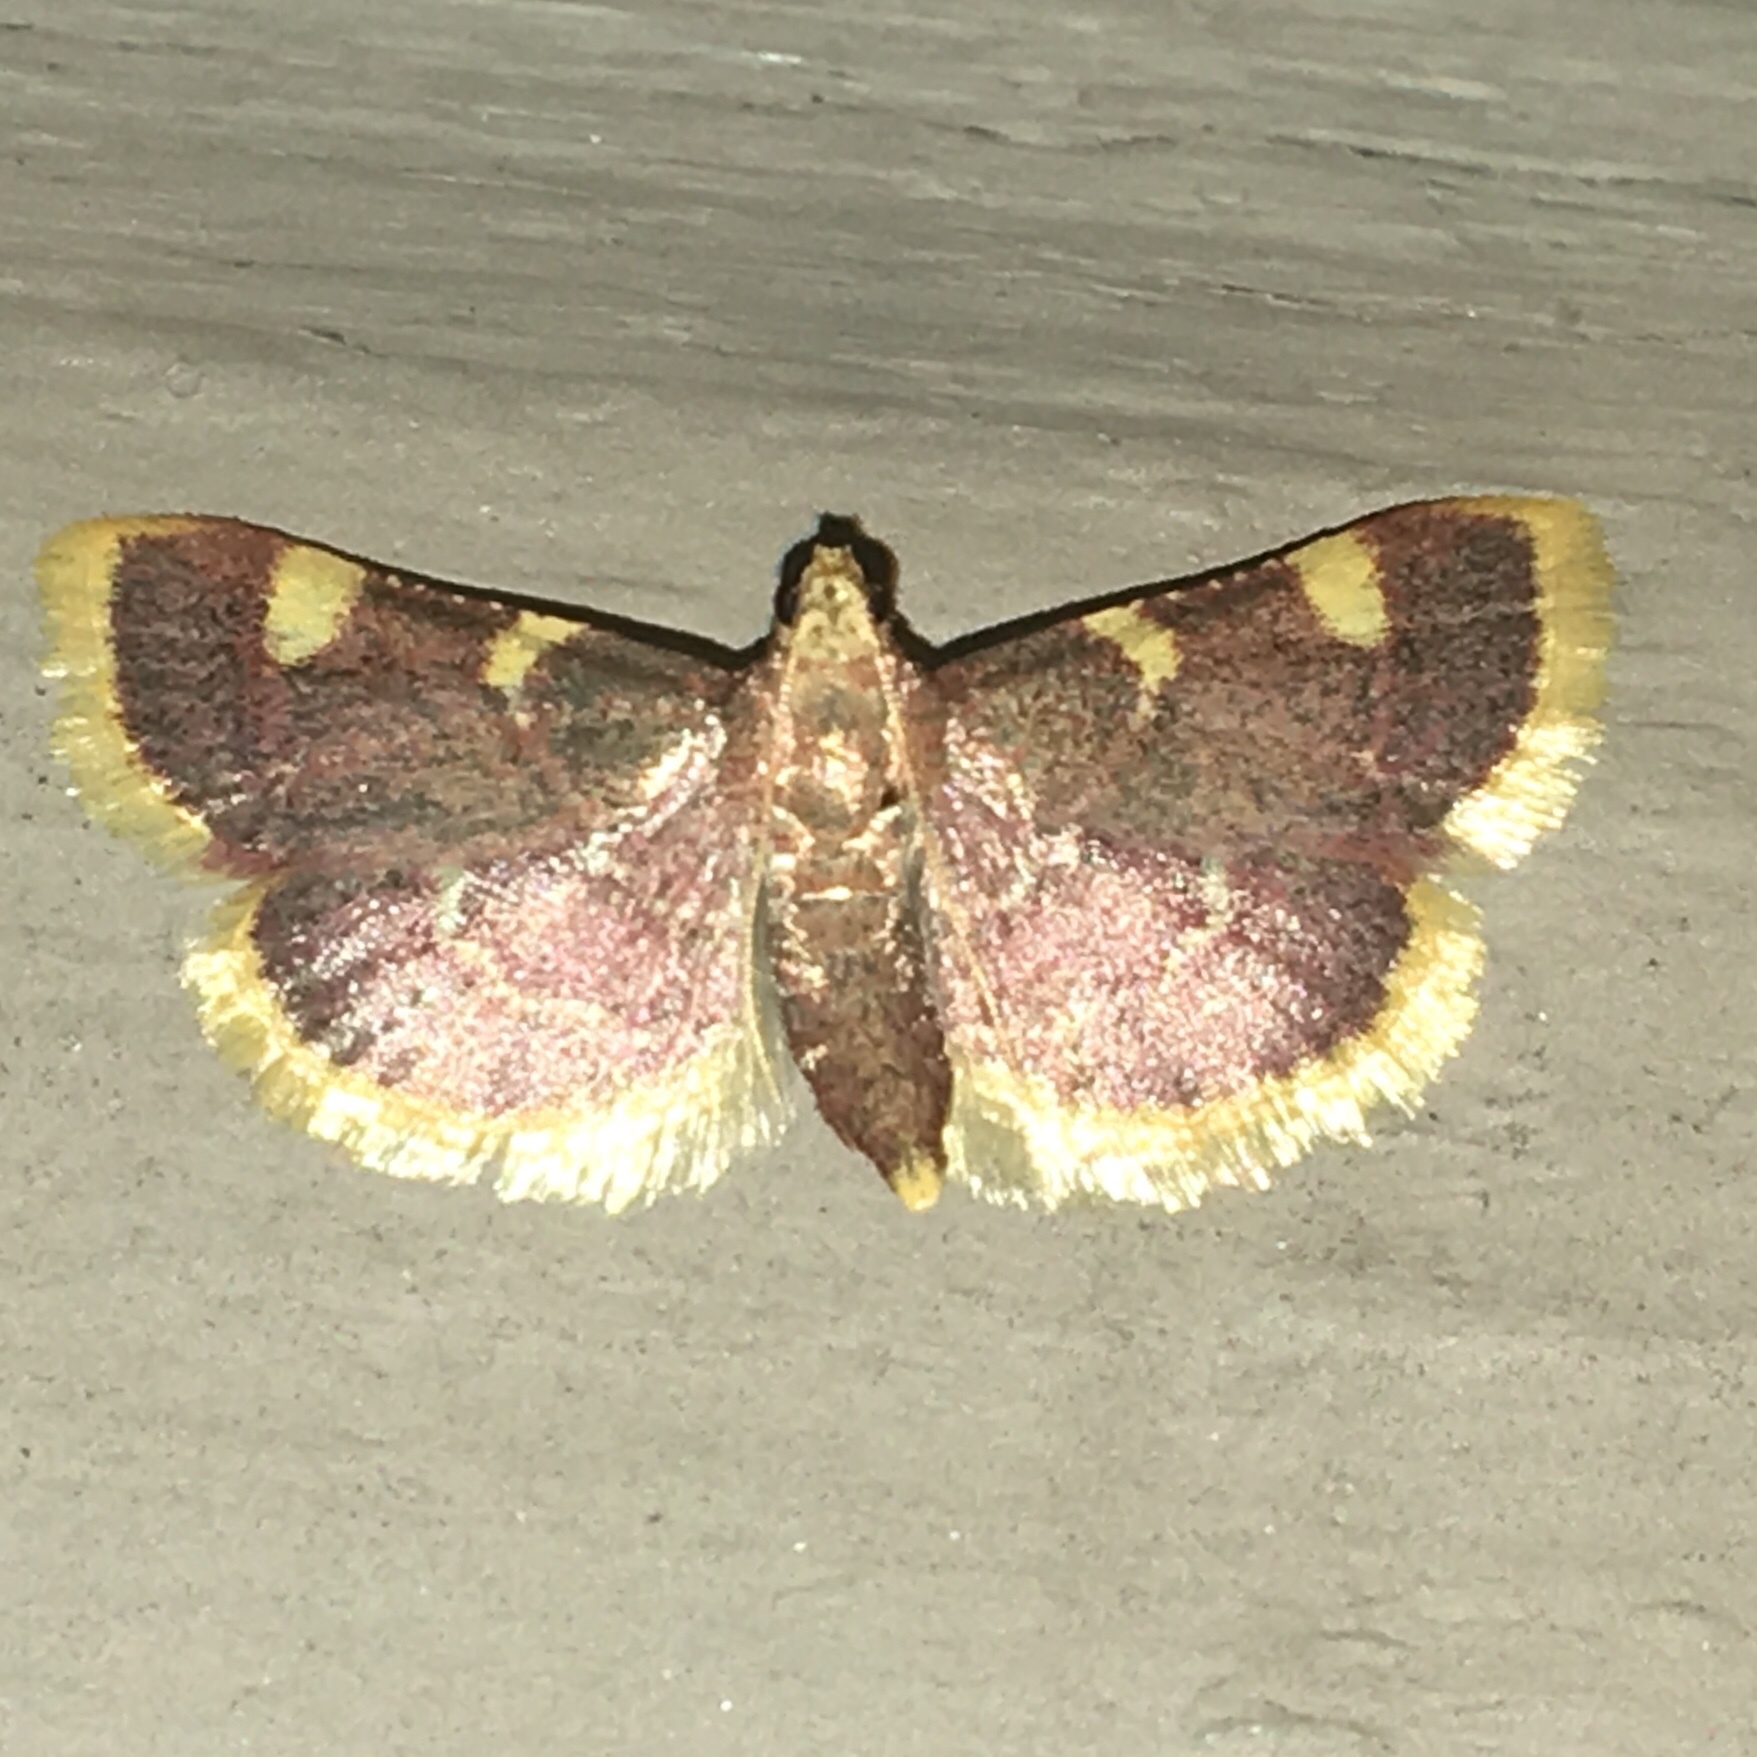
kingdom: Animalia
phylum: Arthropoda
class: Insecta
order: Lepidoptera
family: Pyralidae
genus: Hypsopygia
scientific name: Hypsopygia costalis
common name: Gold triangle
